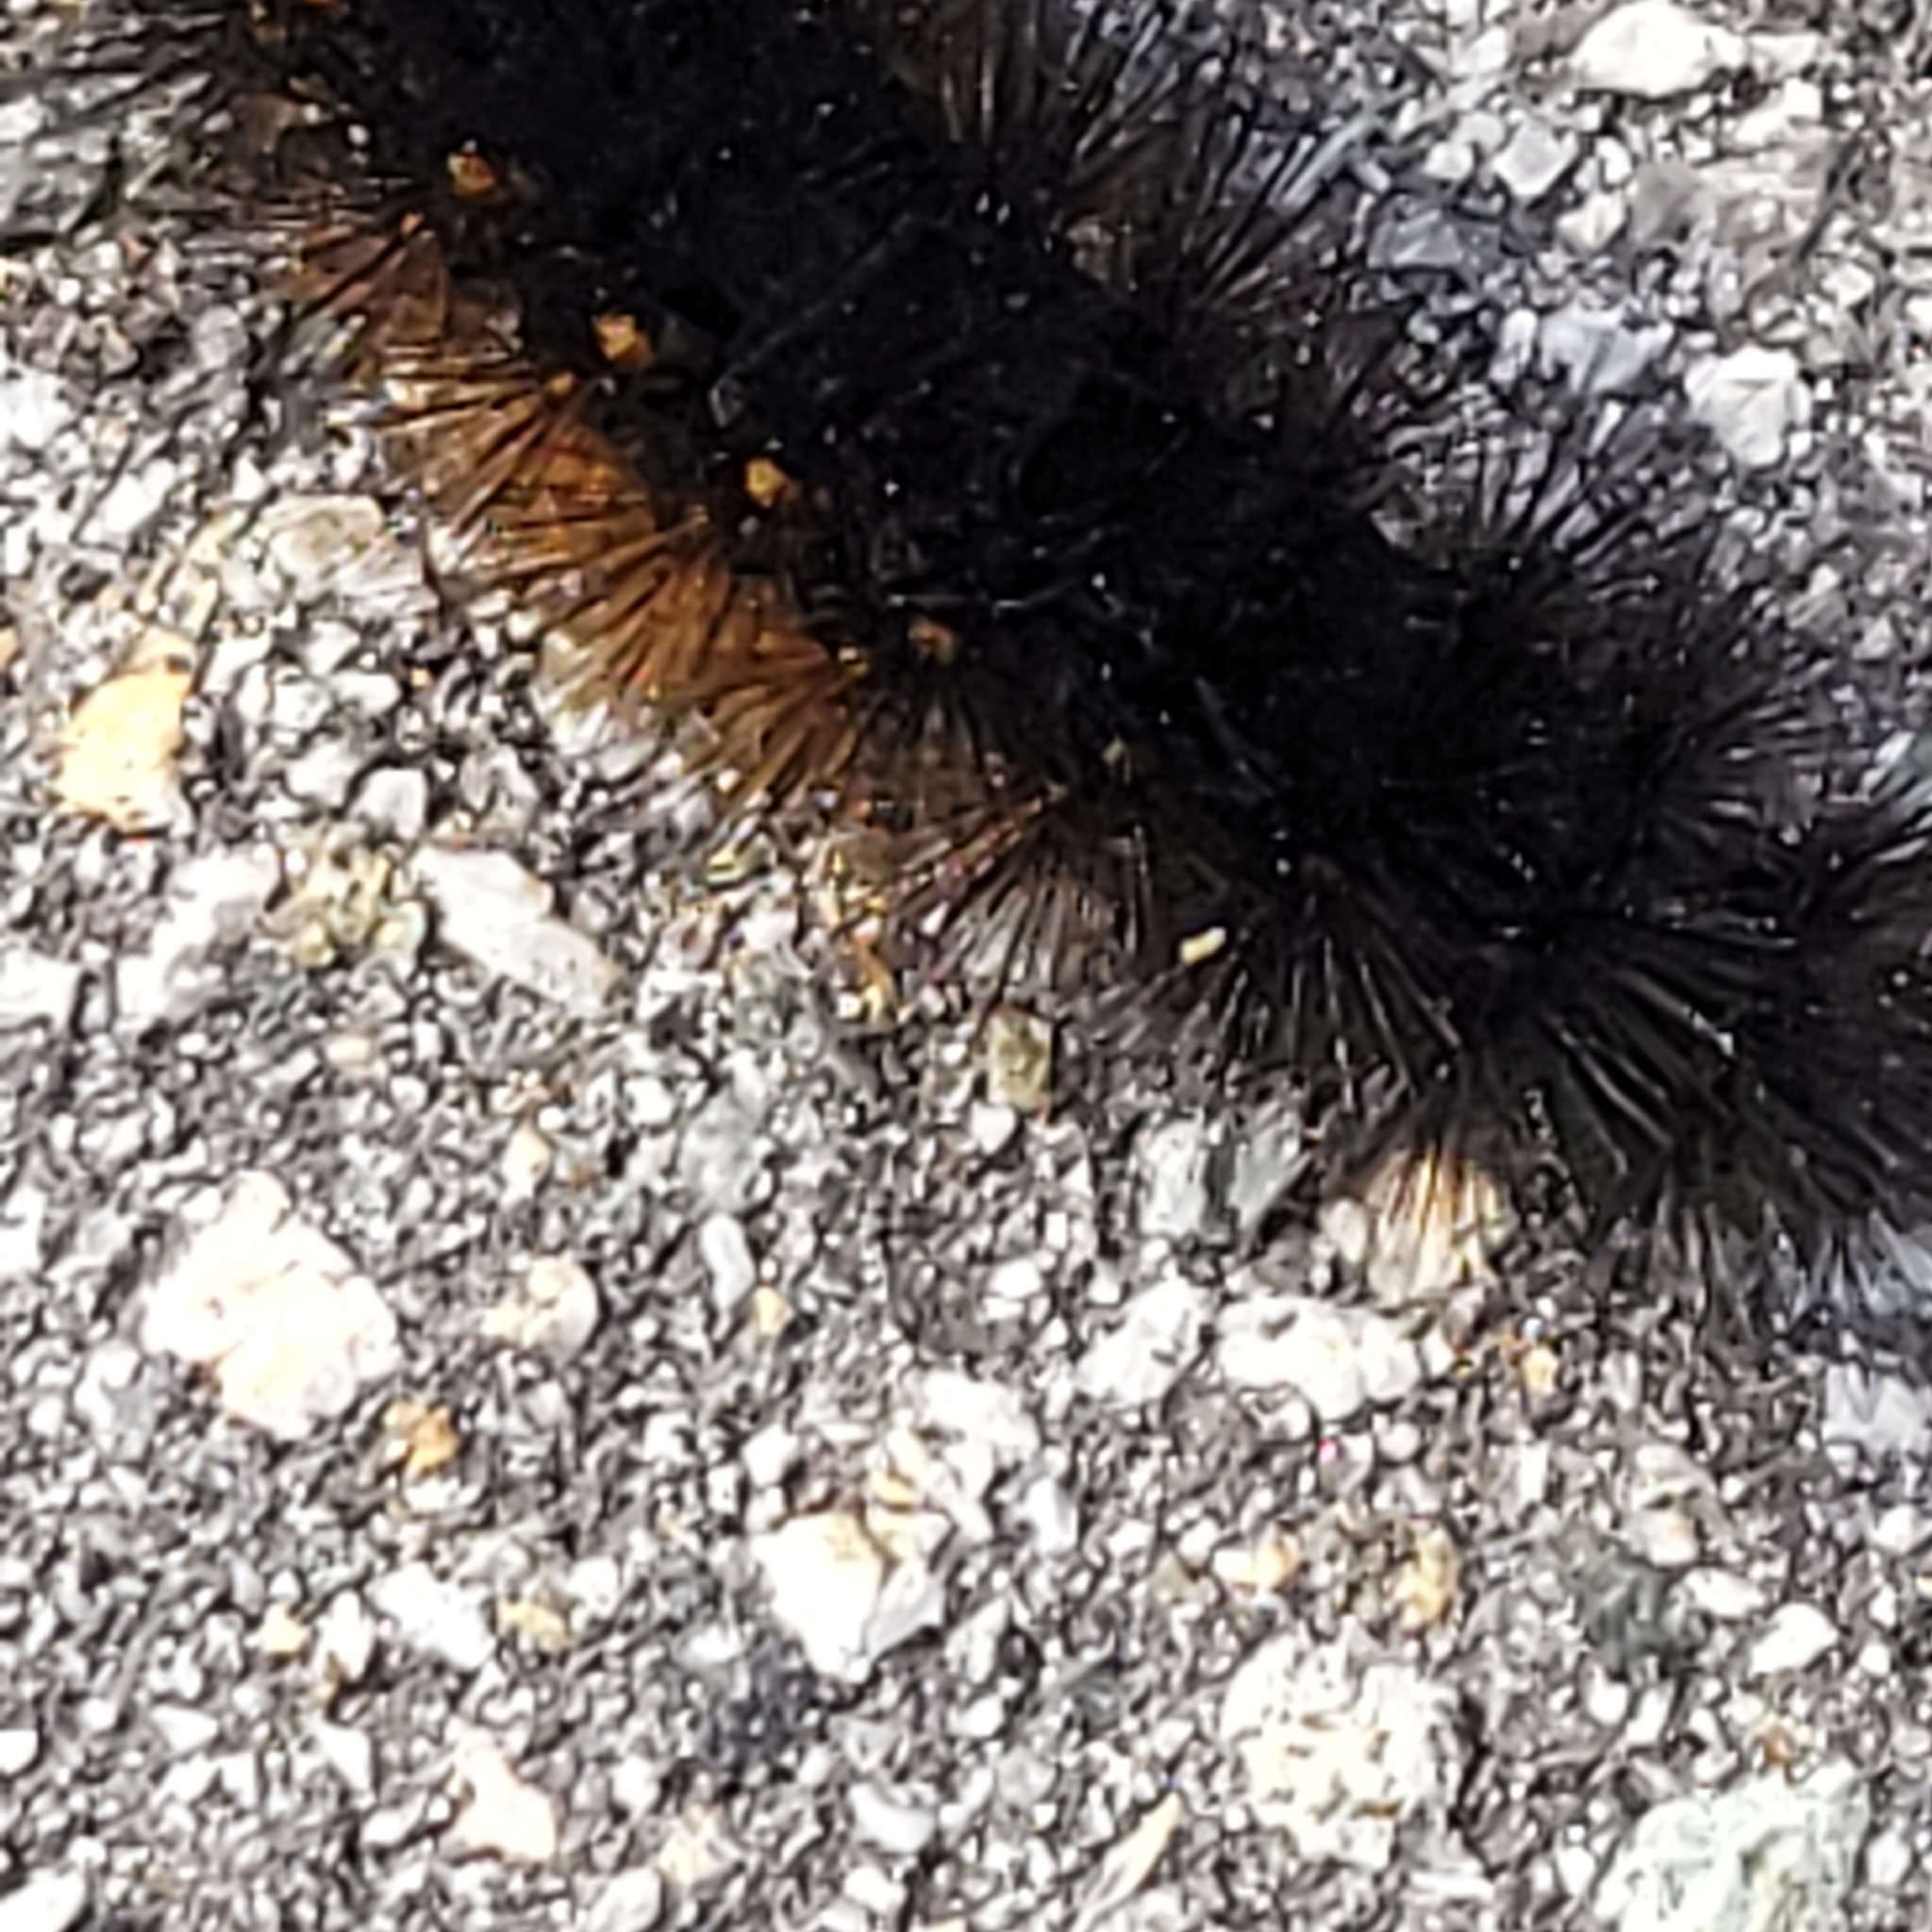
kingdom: Animalia
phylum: Arthropoda
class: Insecta
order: Lepidoptera
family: Erebidae
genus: Estigmene
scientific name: Estigmene acrea
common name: Salt marsh moth
